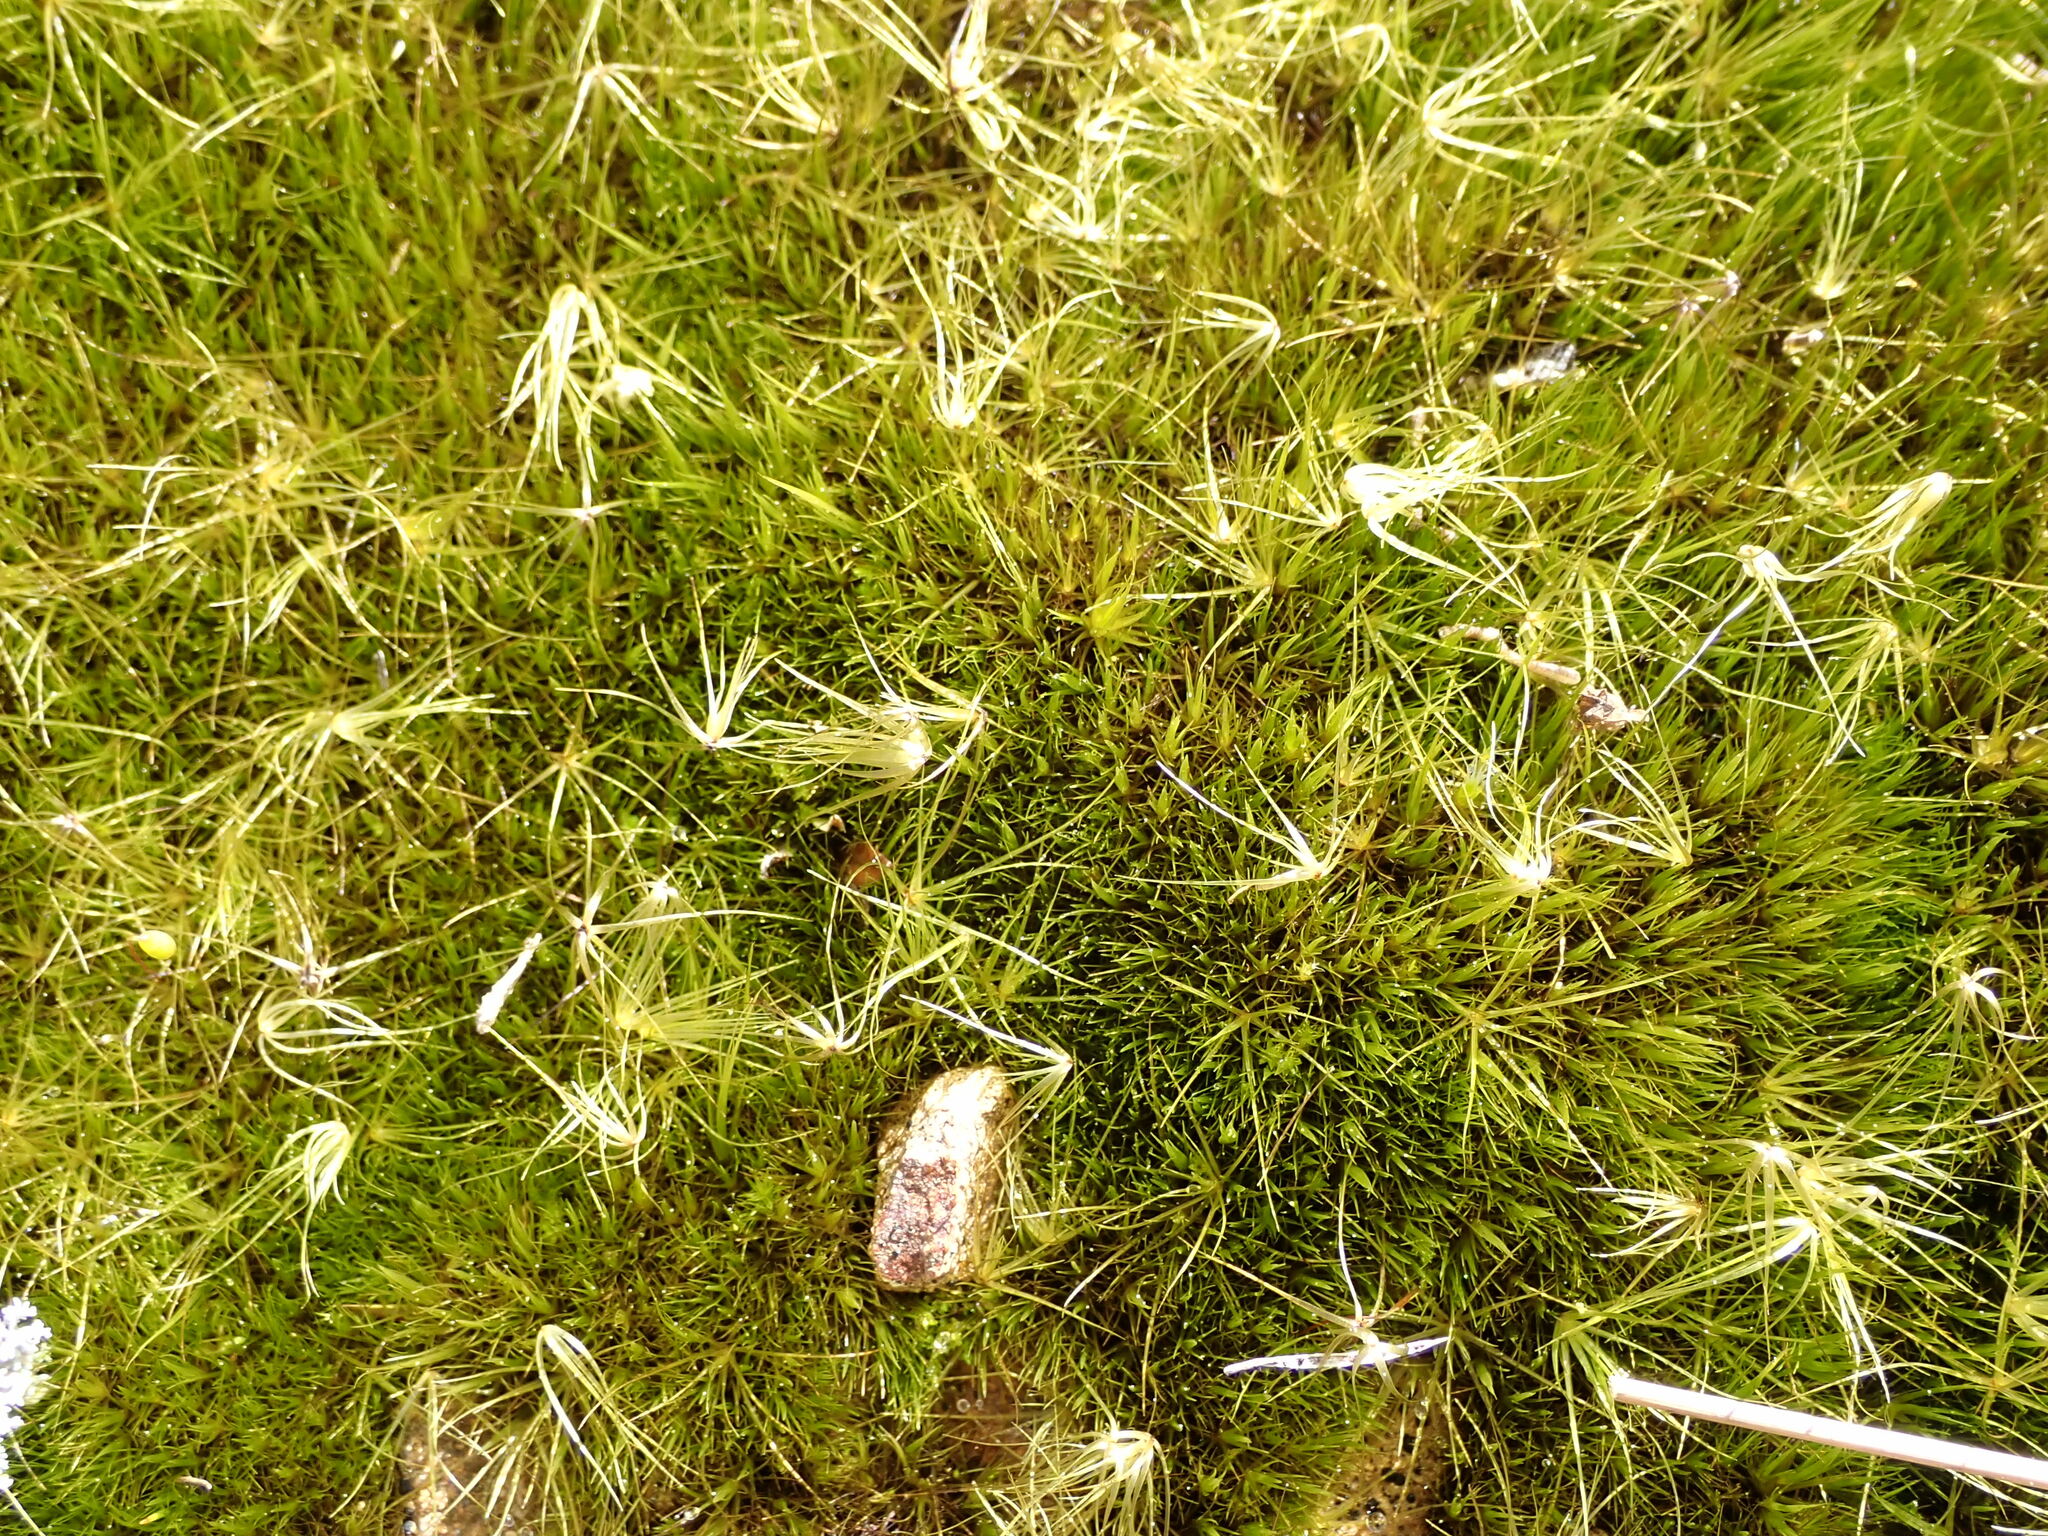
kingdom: Plantae
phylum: Bryophyta
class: Bryopsida
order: Dicranales
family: Leucobryaceae
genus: Campylopus
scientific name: Campylopus clavatus
